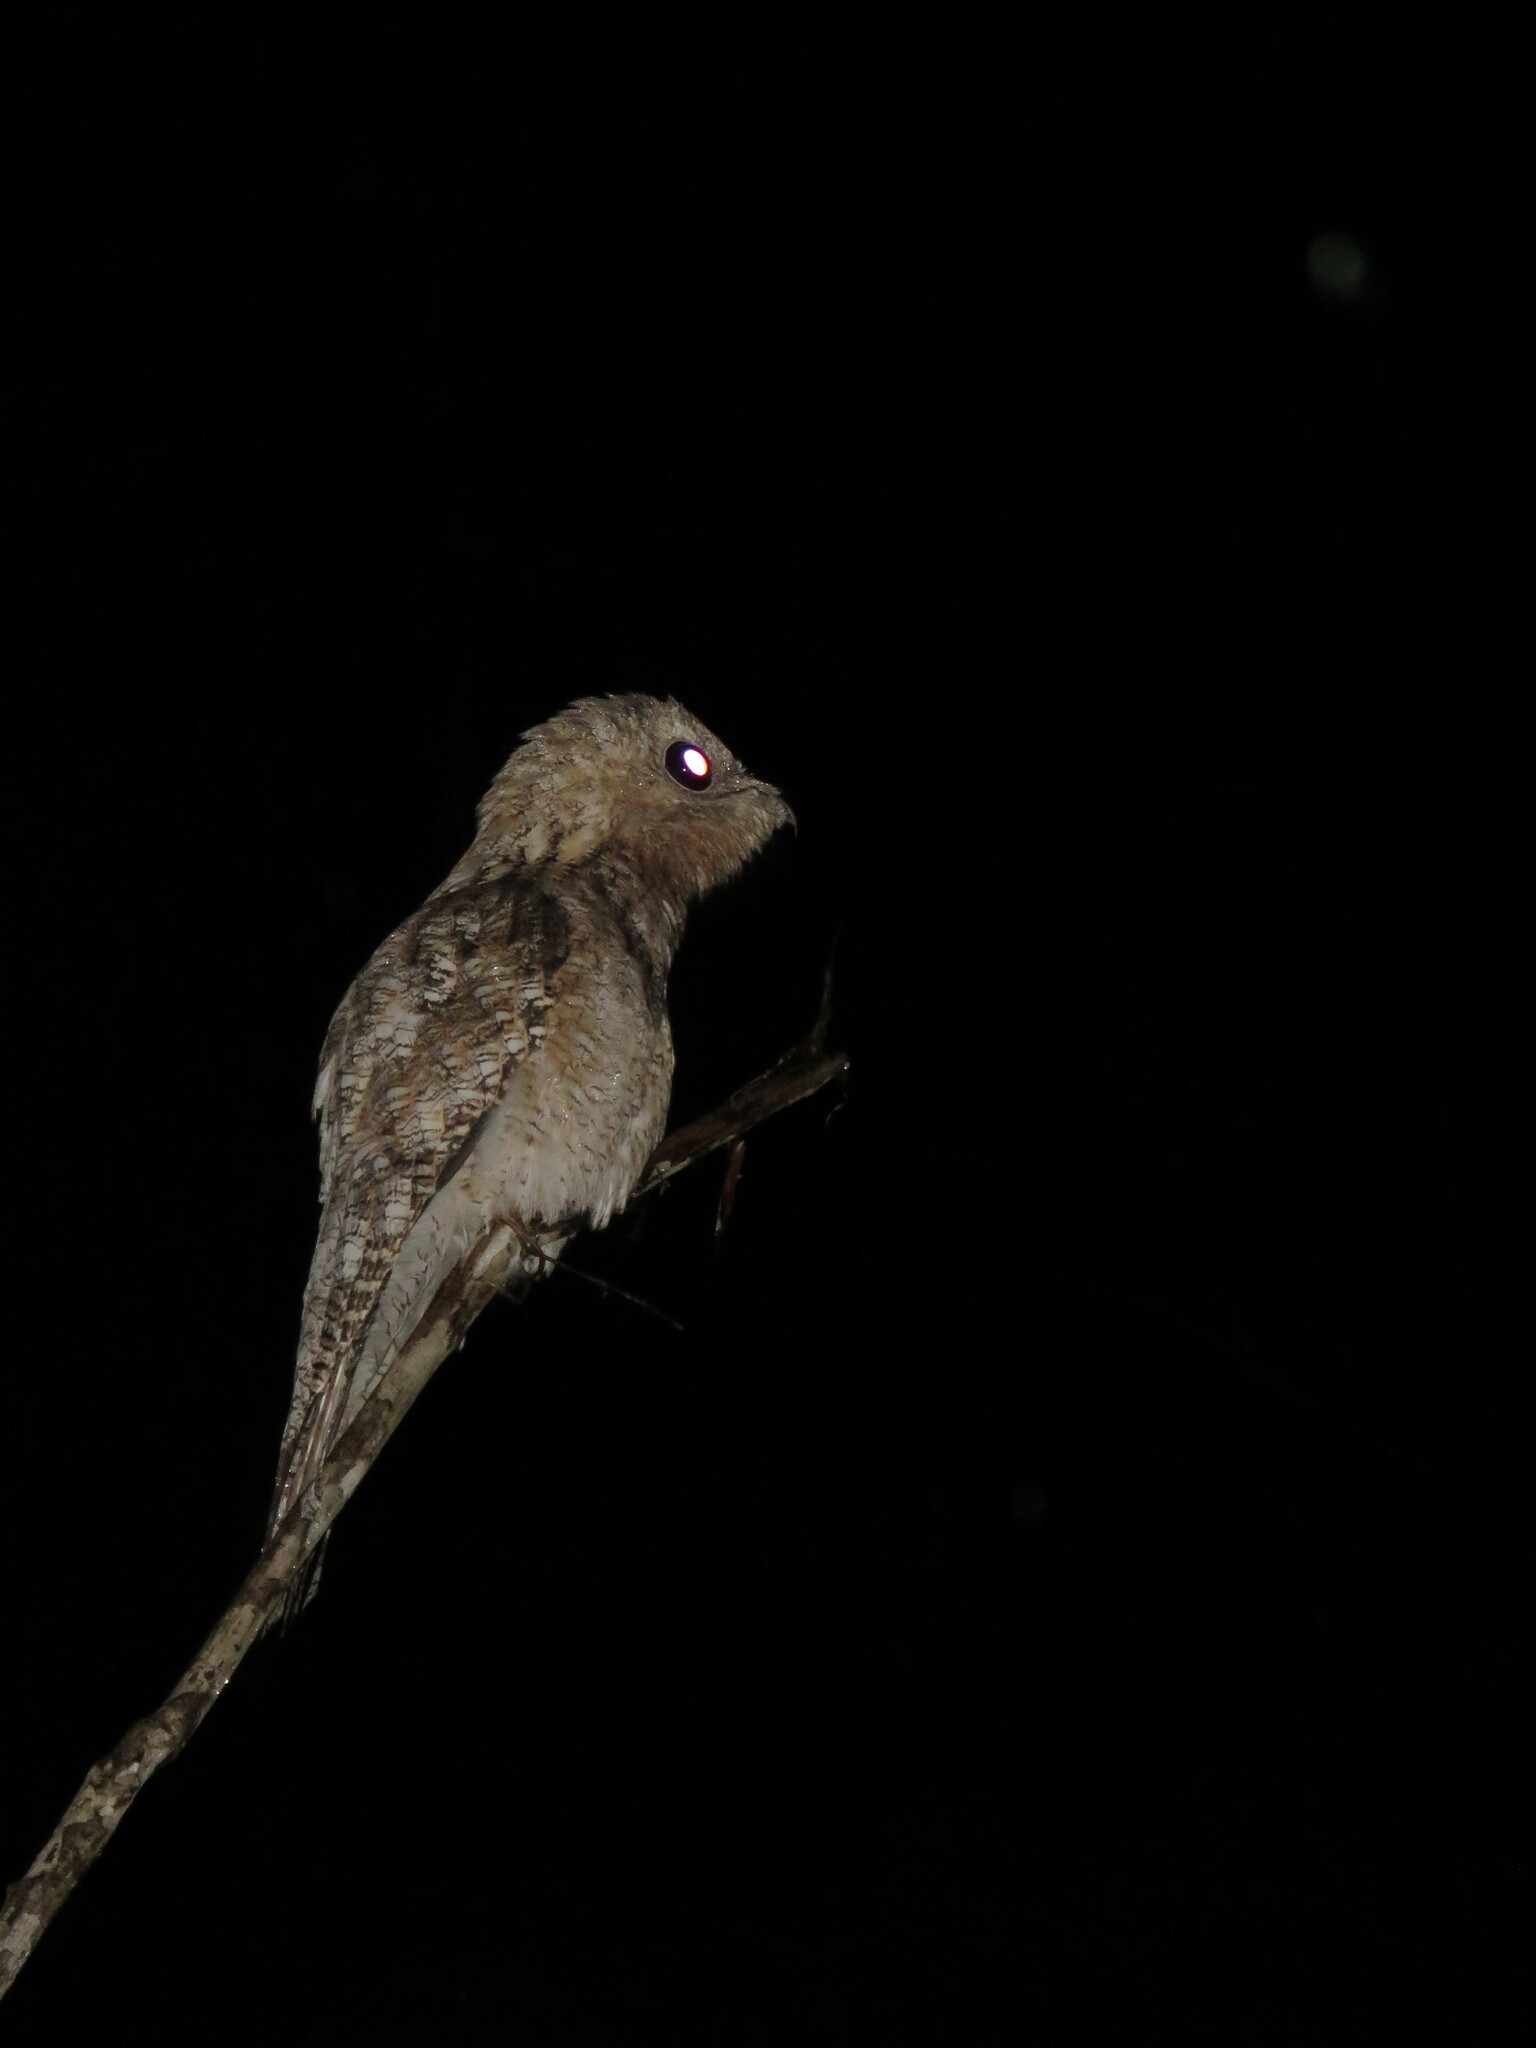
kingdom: Animalia
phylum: Chordata
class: Aves
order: Nyctibiiformes
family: Nyctibiidae
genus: Nyctibius
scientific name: Nyctibius grandis
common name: Great potoo
